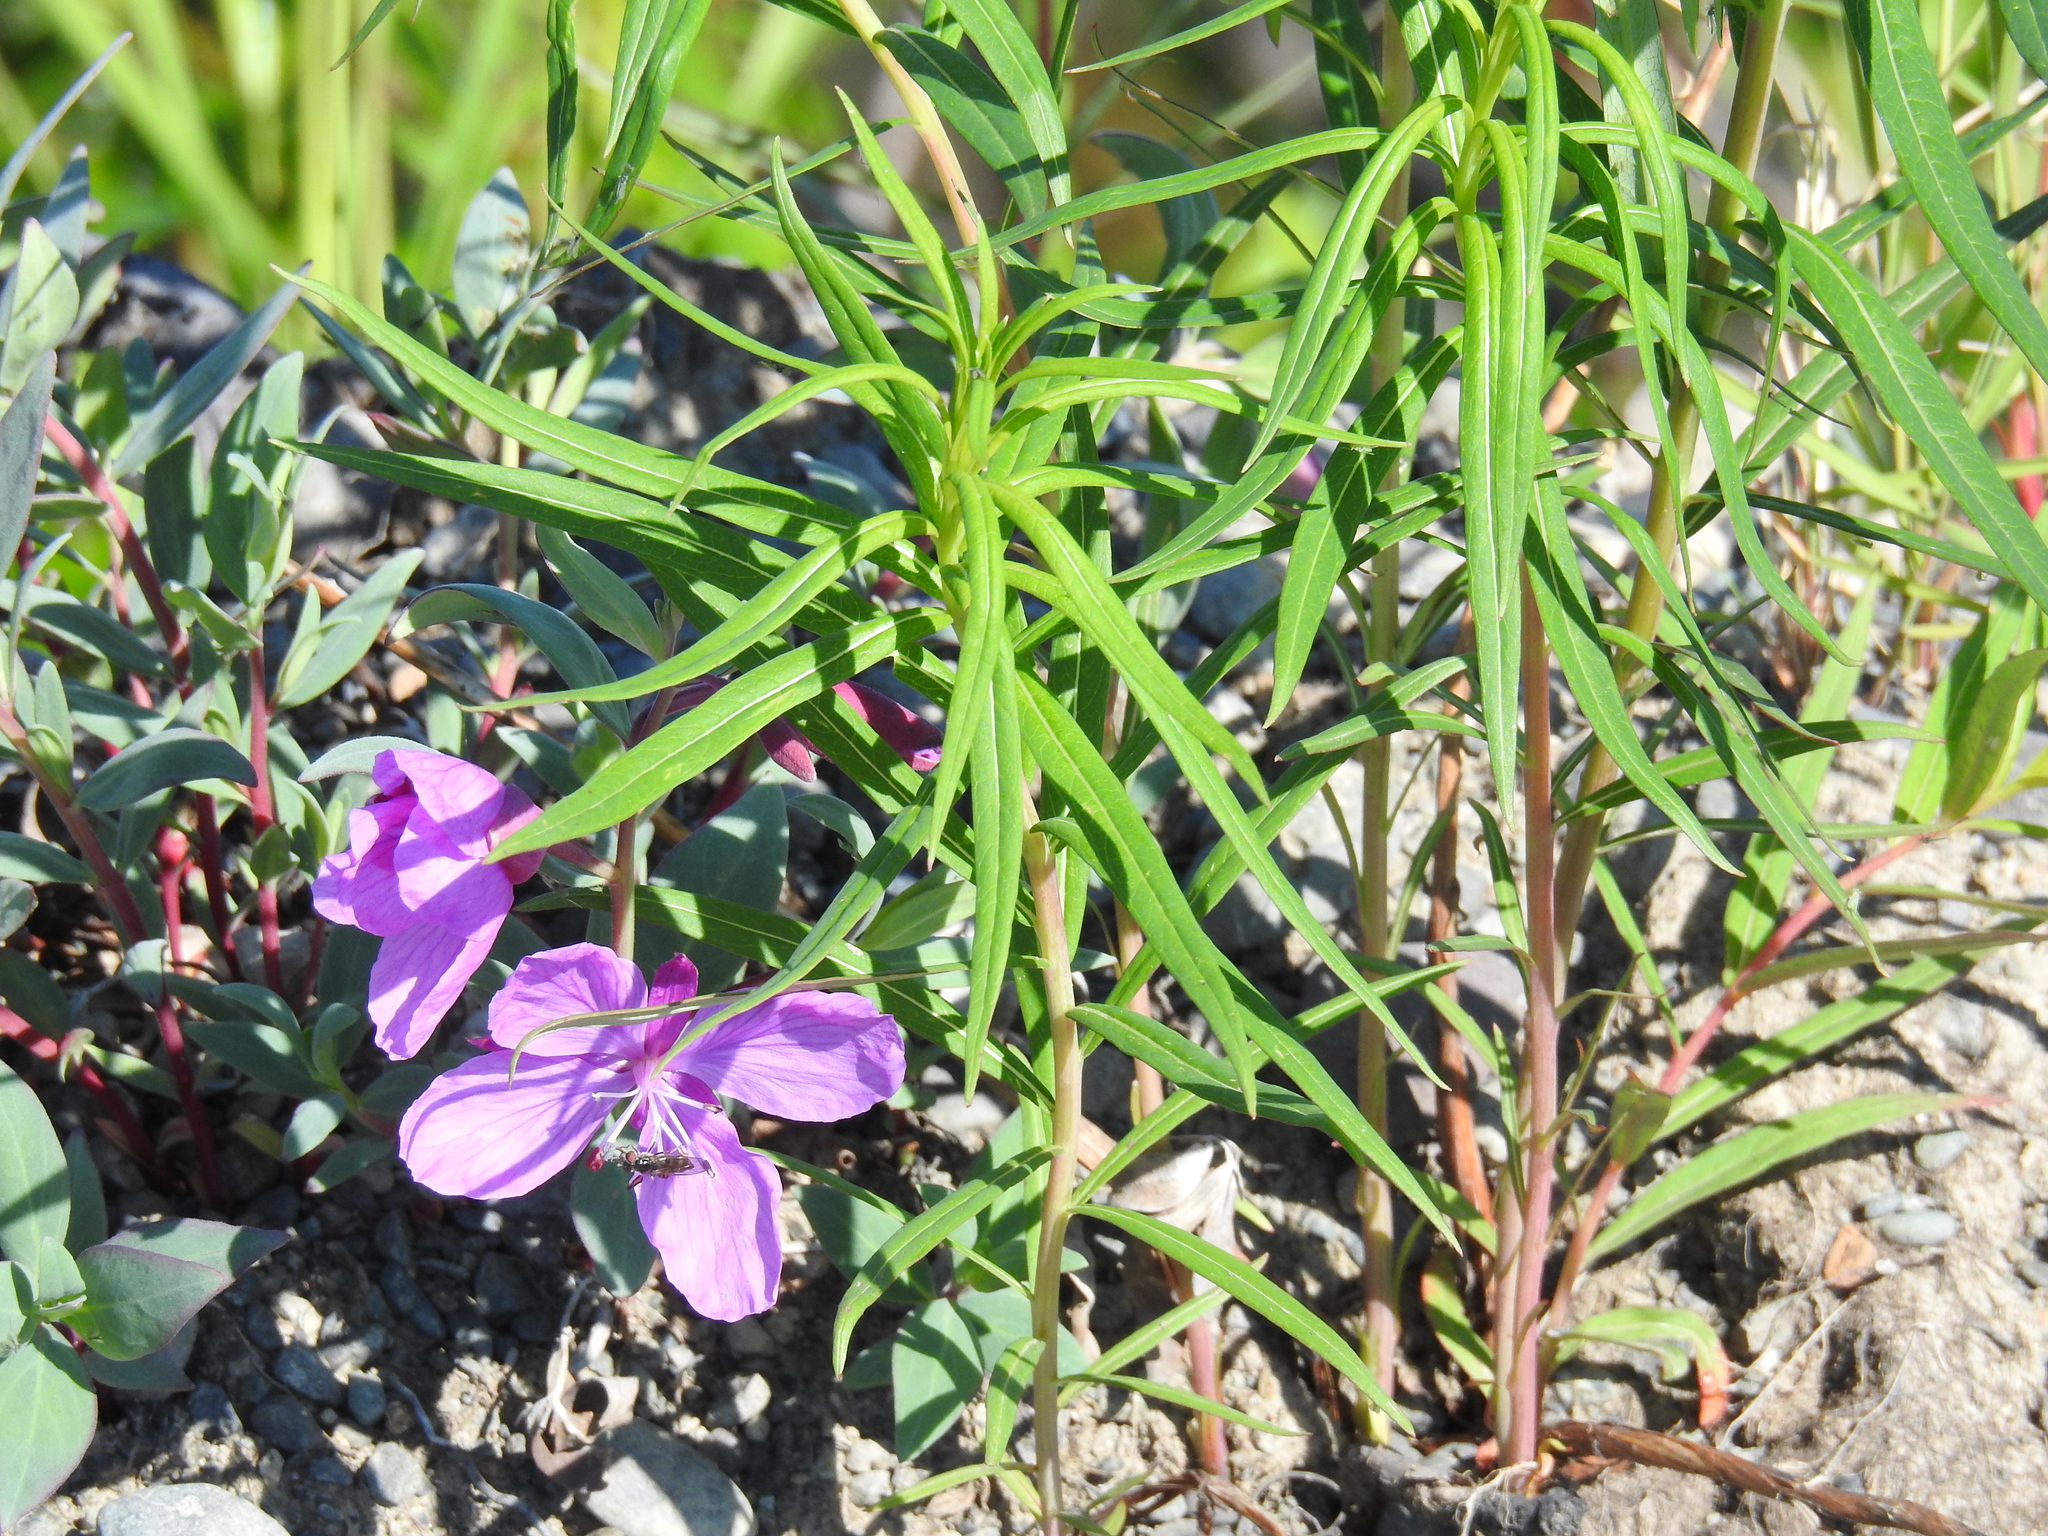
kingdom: Plantae
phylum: Tracheophyta
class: Magnoliopsida
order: Myrtales
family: Onagraceae
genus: Chamaenerion
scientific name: Chamaenerion latifolium
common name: Dwarf fireweed
